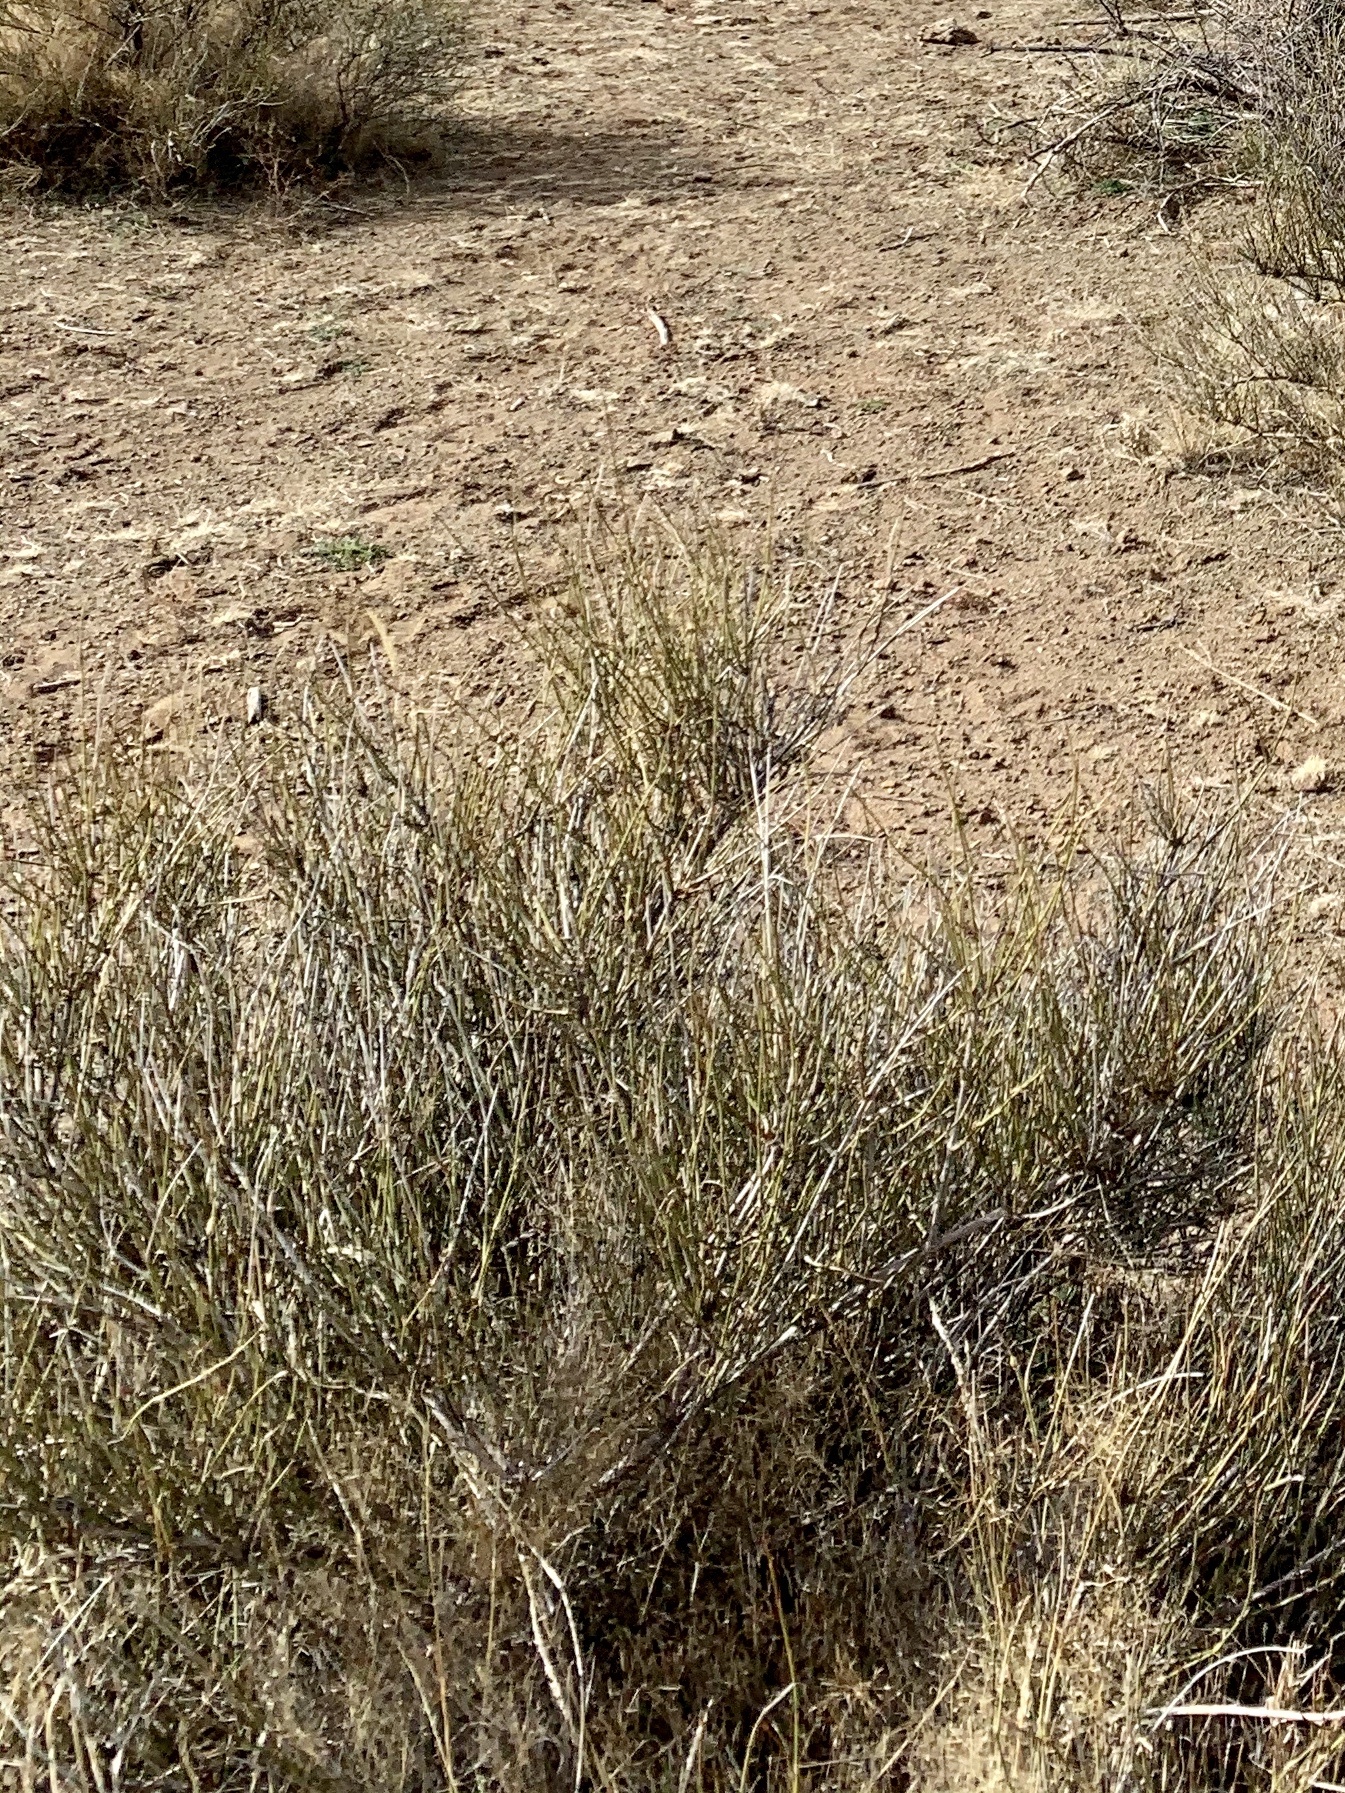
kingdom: Plantae
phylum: Tracheophyta
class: Gnetopsida
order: Ephedrales
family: Ephedraceae
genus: Ephedra
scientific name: Ephedra trifurca
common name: Mexican-tea
